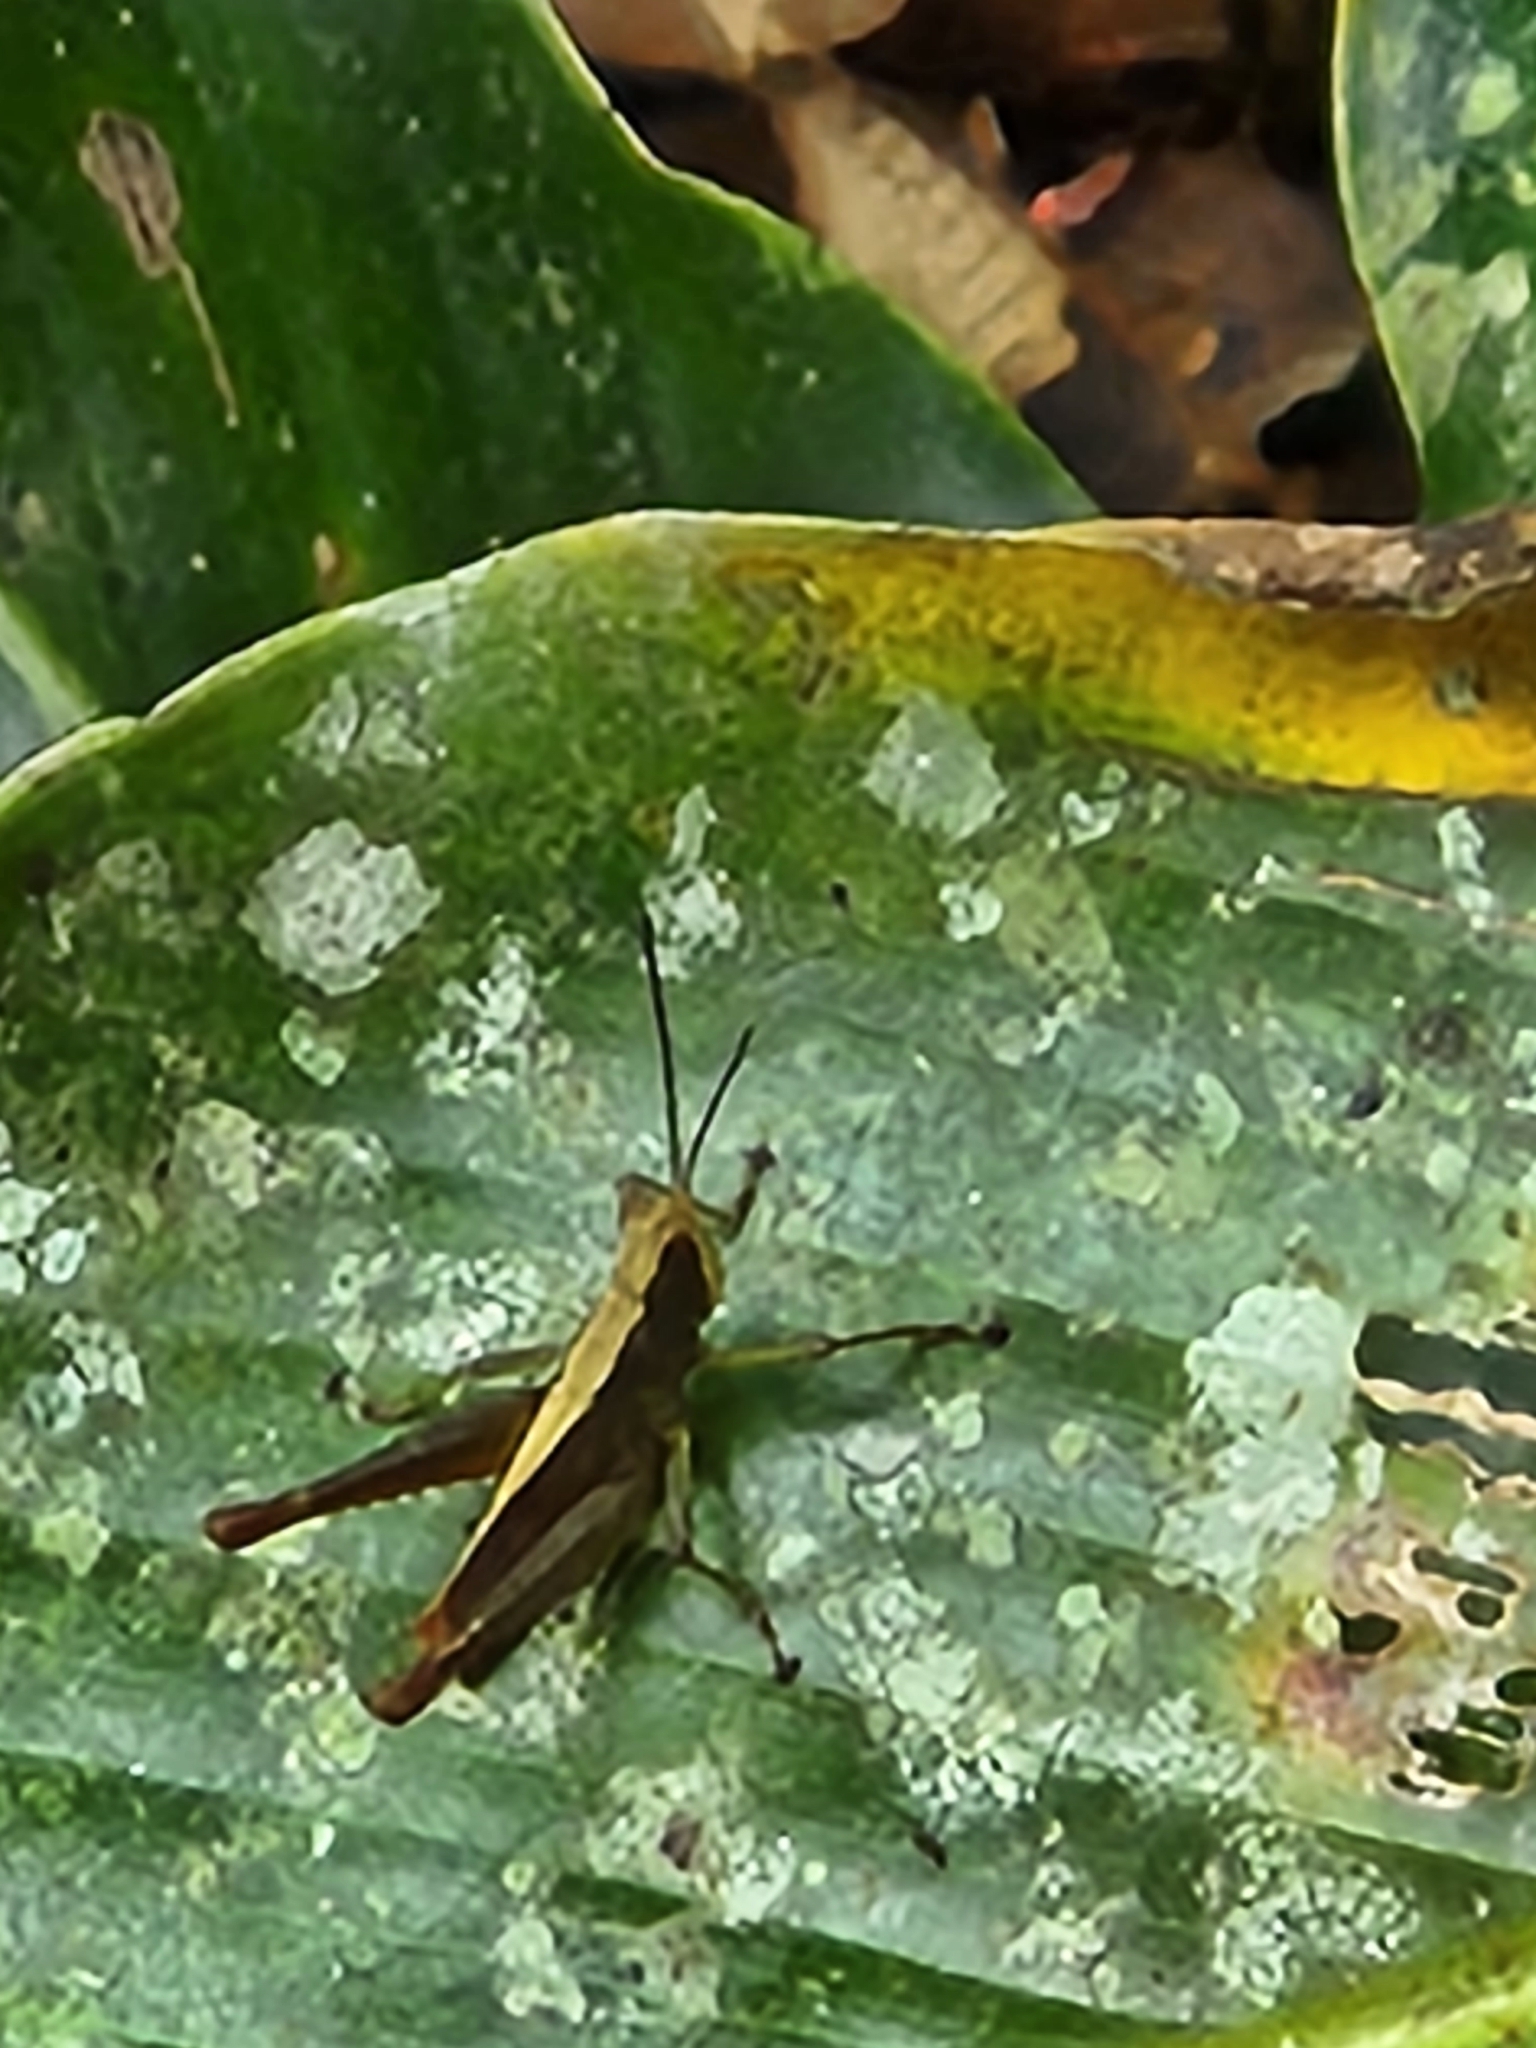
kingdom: Animalia
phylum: Arthropoda
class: Insecta
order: Orthoptera
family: Romaleidae
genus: Maculiparia
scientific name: Maculiparia rotundata
